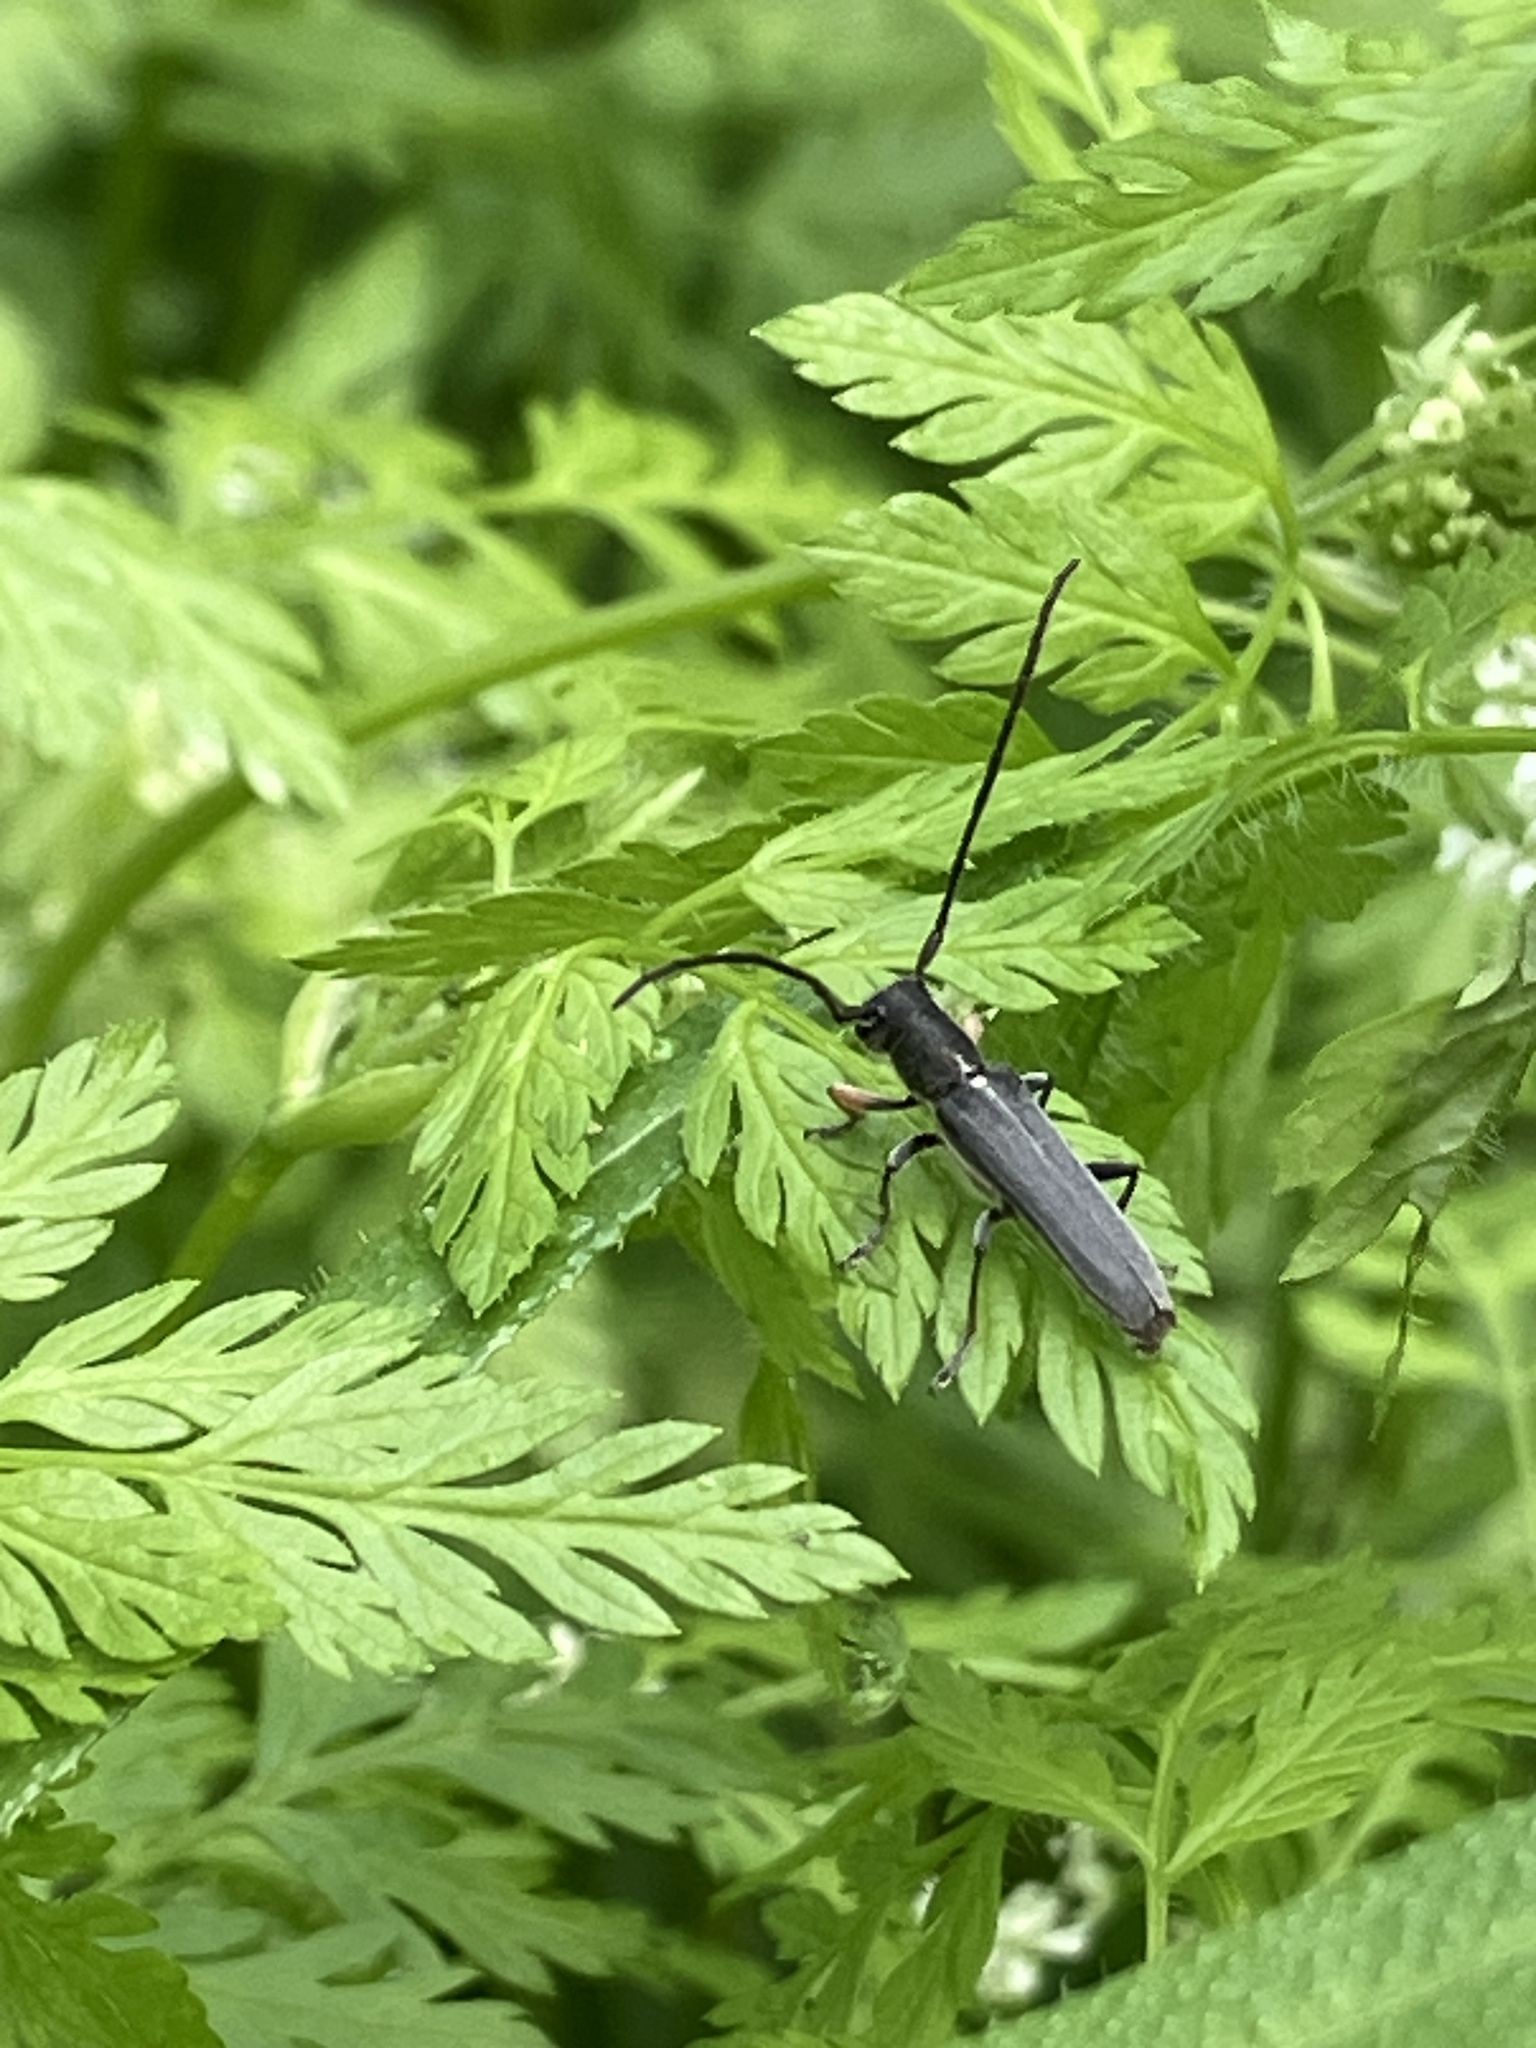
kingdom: Animalia
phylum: Arthropoda
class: Insecta
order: Coleoptera
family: Cerambycidae
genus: Phytoecia
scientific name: Phytoecia cylindrica
